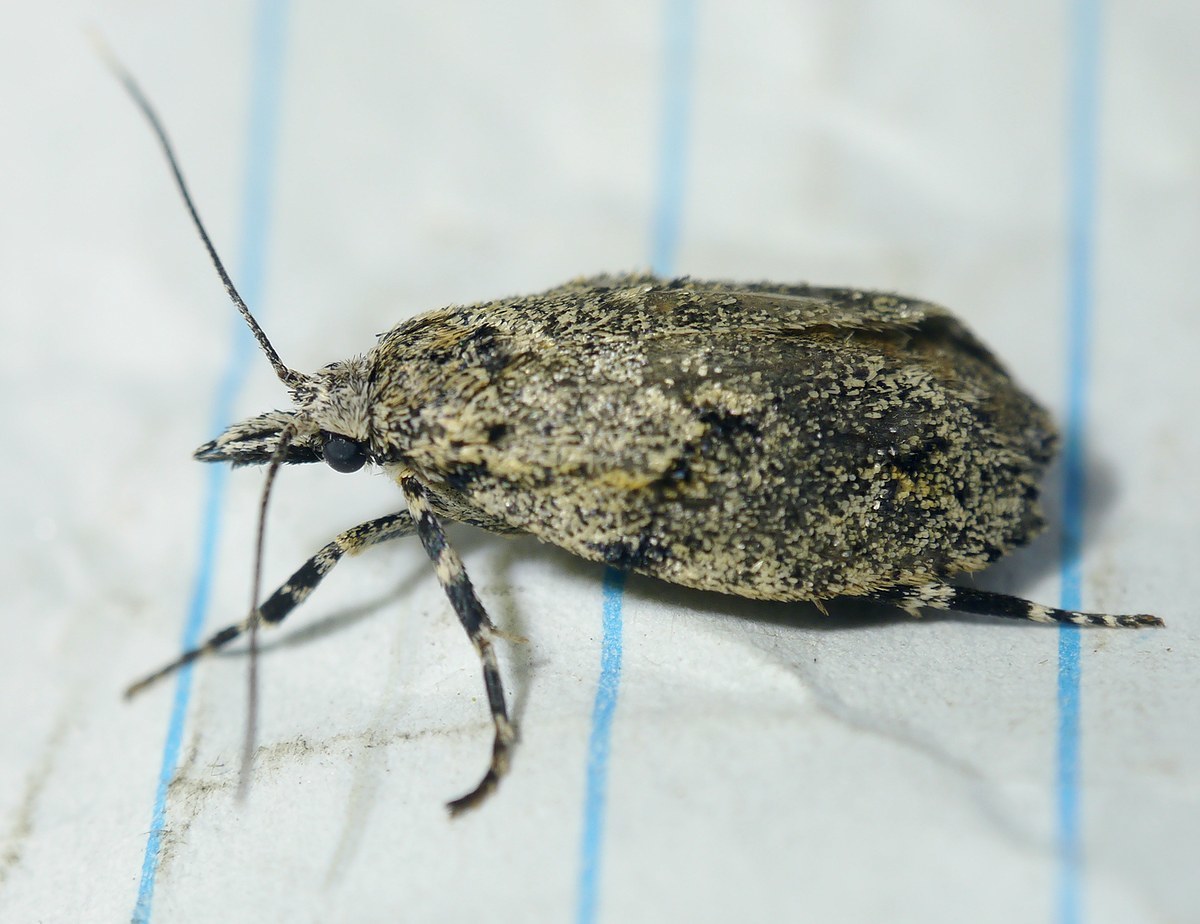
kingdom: Animalia
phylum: Arthropoda
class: Insecta
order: Lepidoptera
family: Lypusidae
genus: Diurnea
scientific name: Diurnea fagella
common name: March tubic
